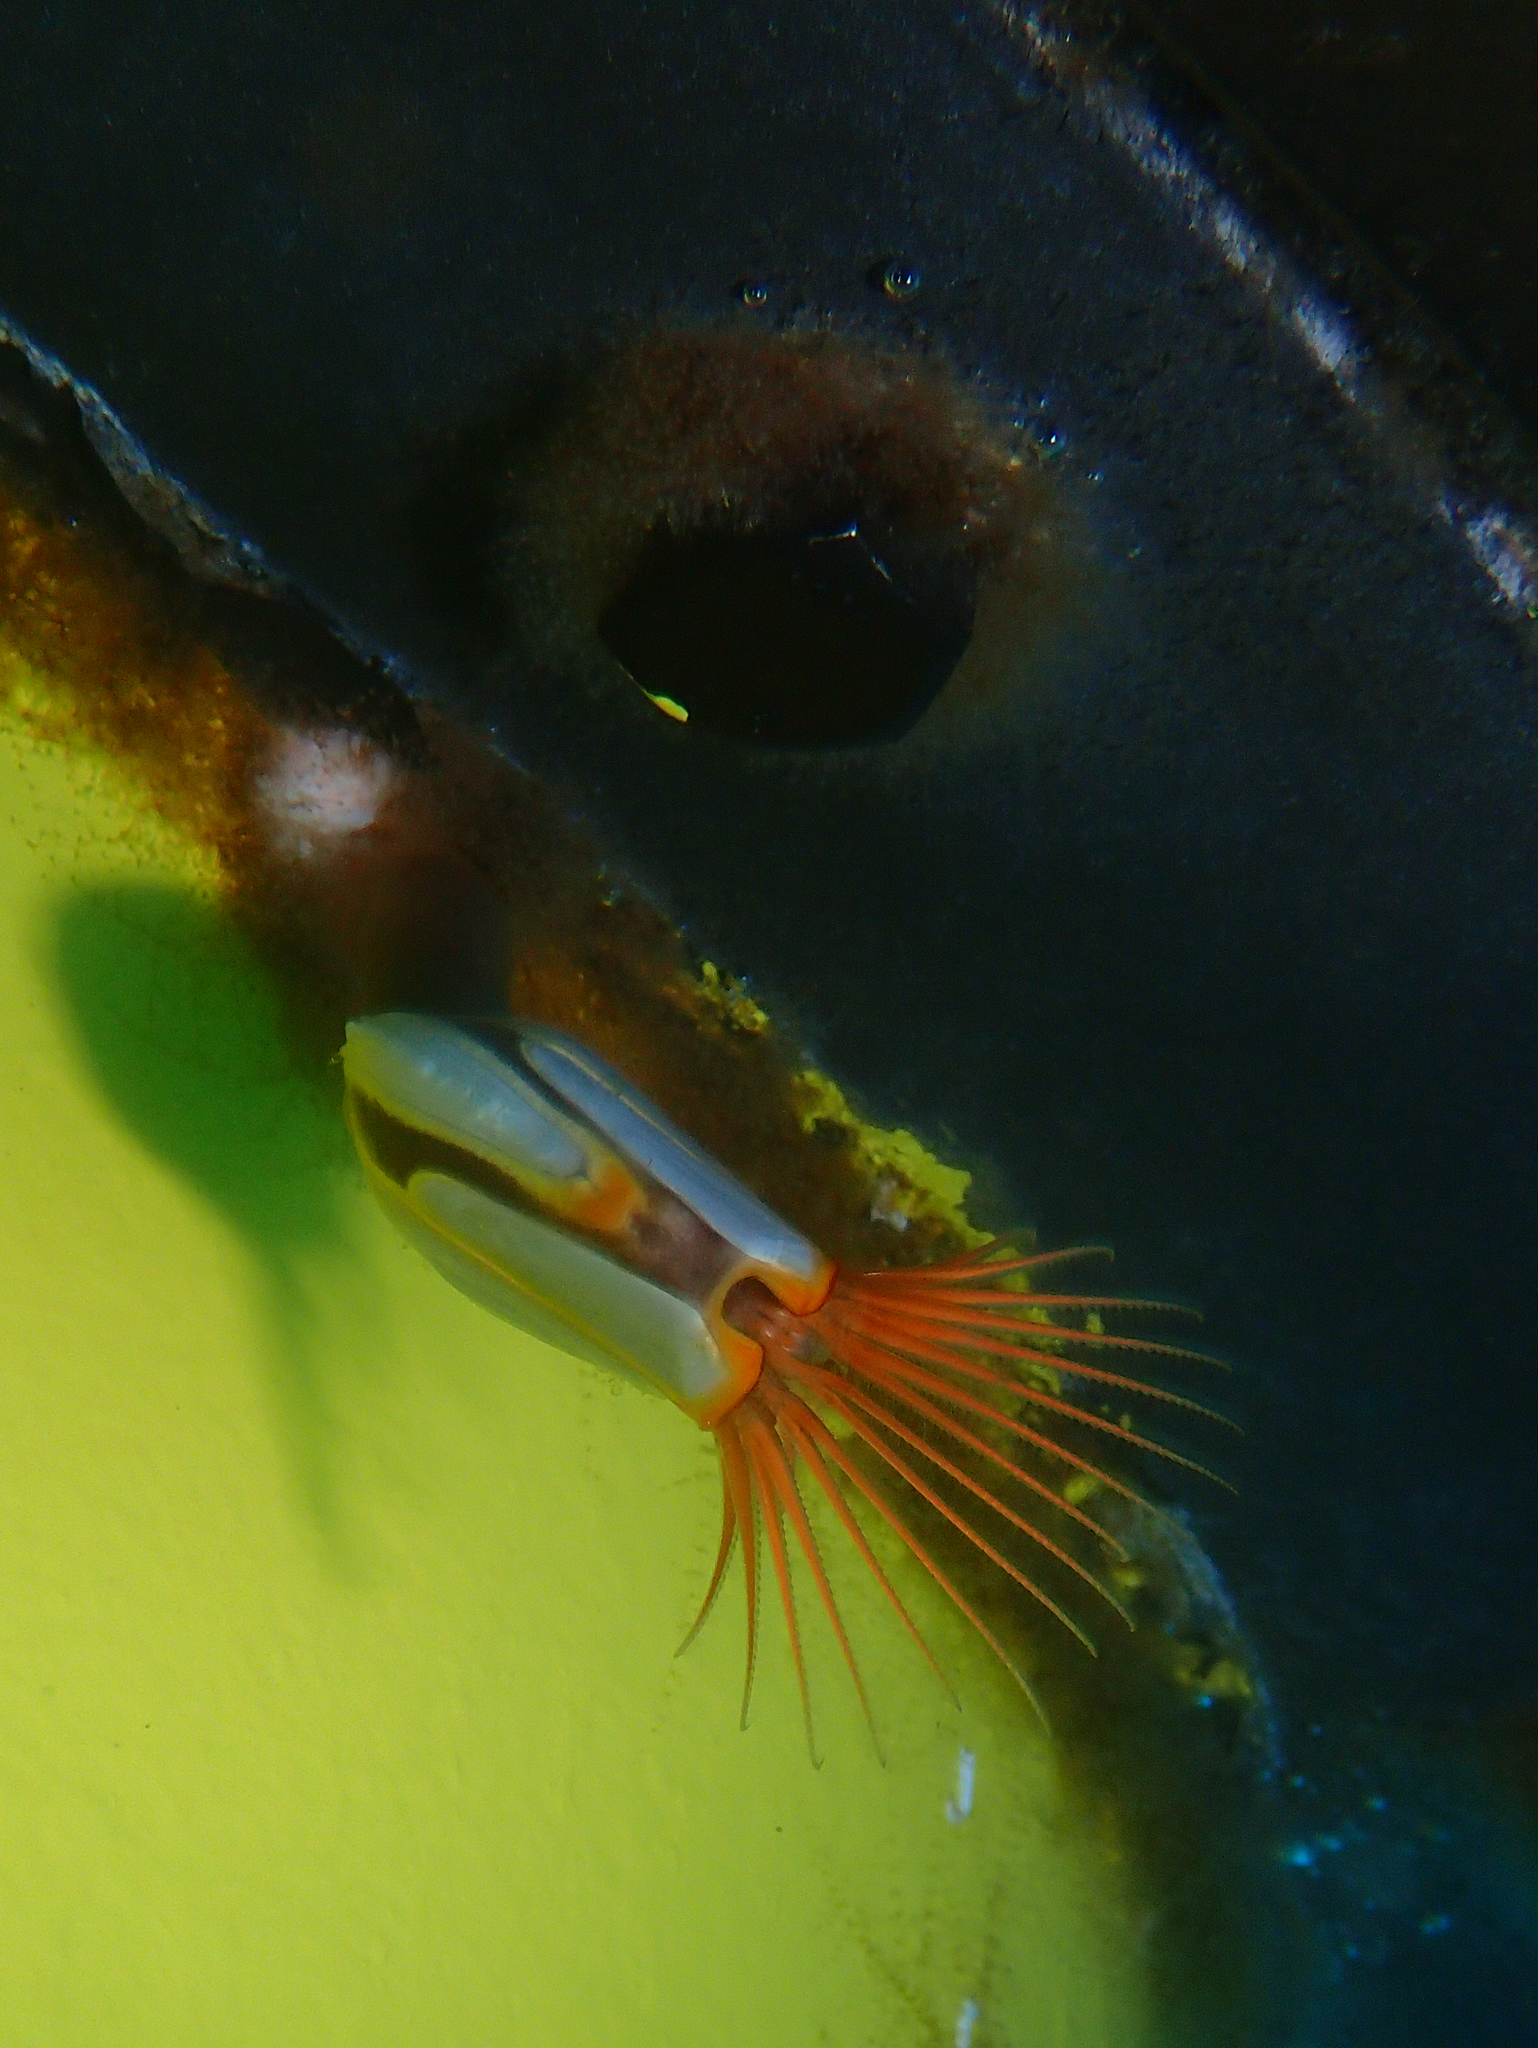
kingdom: Animalia
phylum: Arthropoda
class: Maxillopoda
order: Pedunculata
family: Lepadidae
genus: Lepas
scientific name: Lepas hillii
